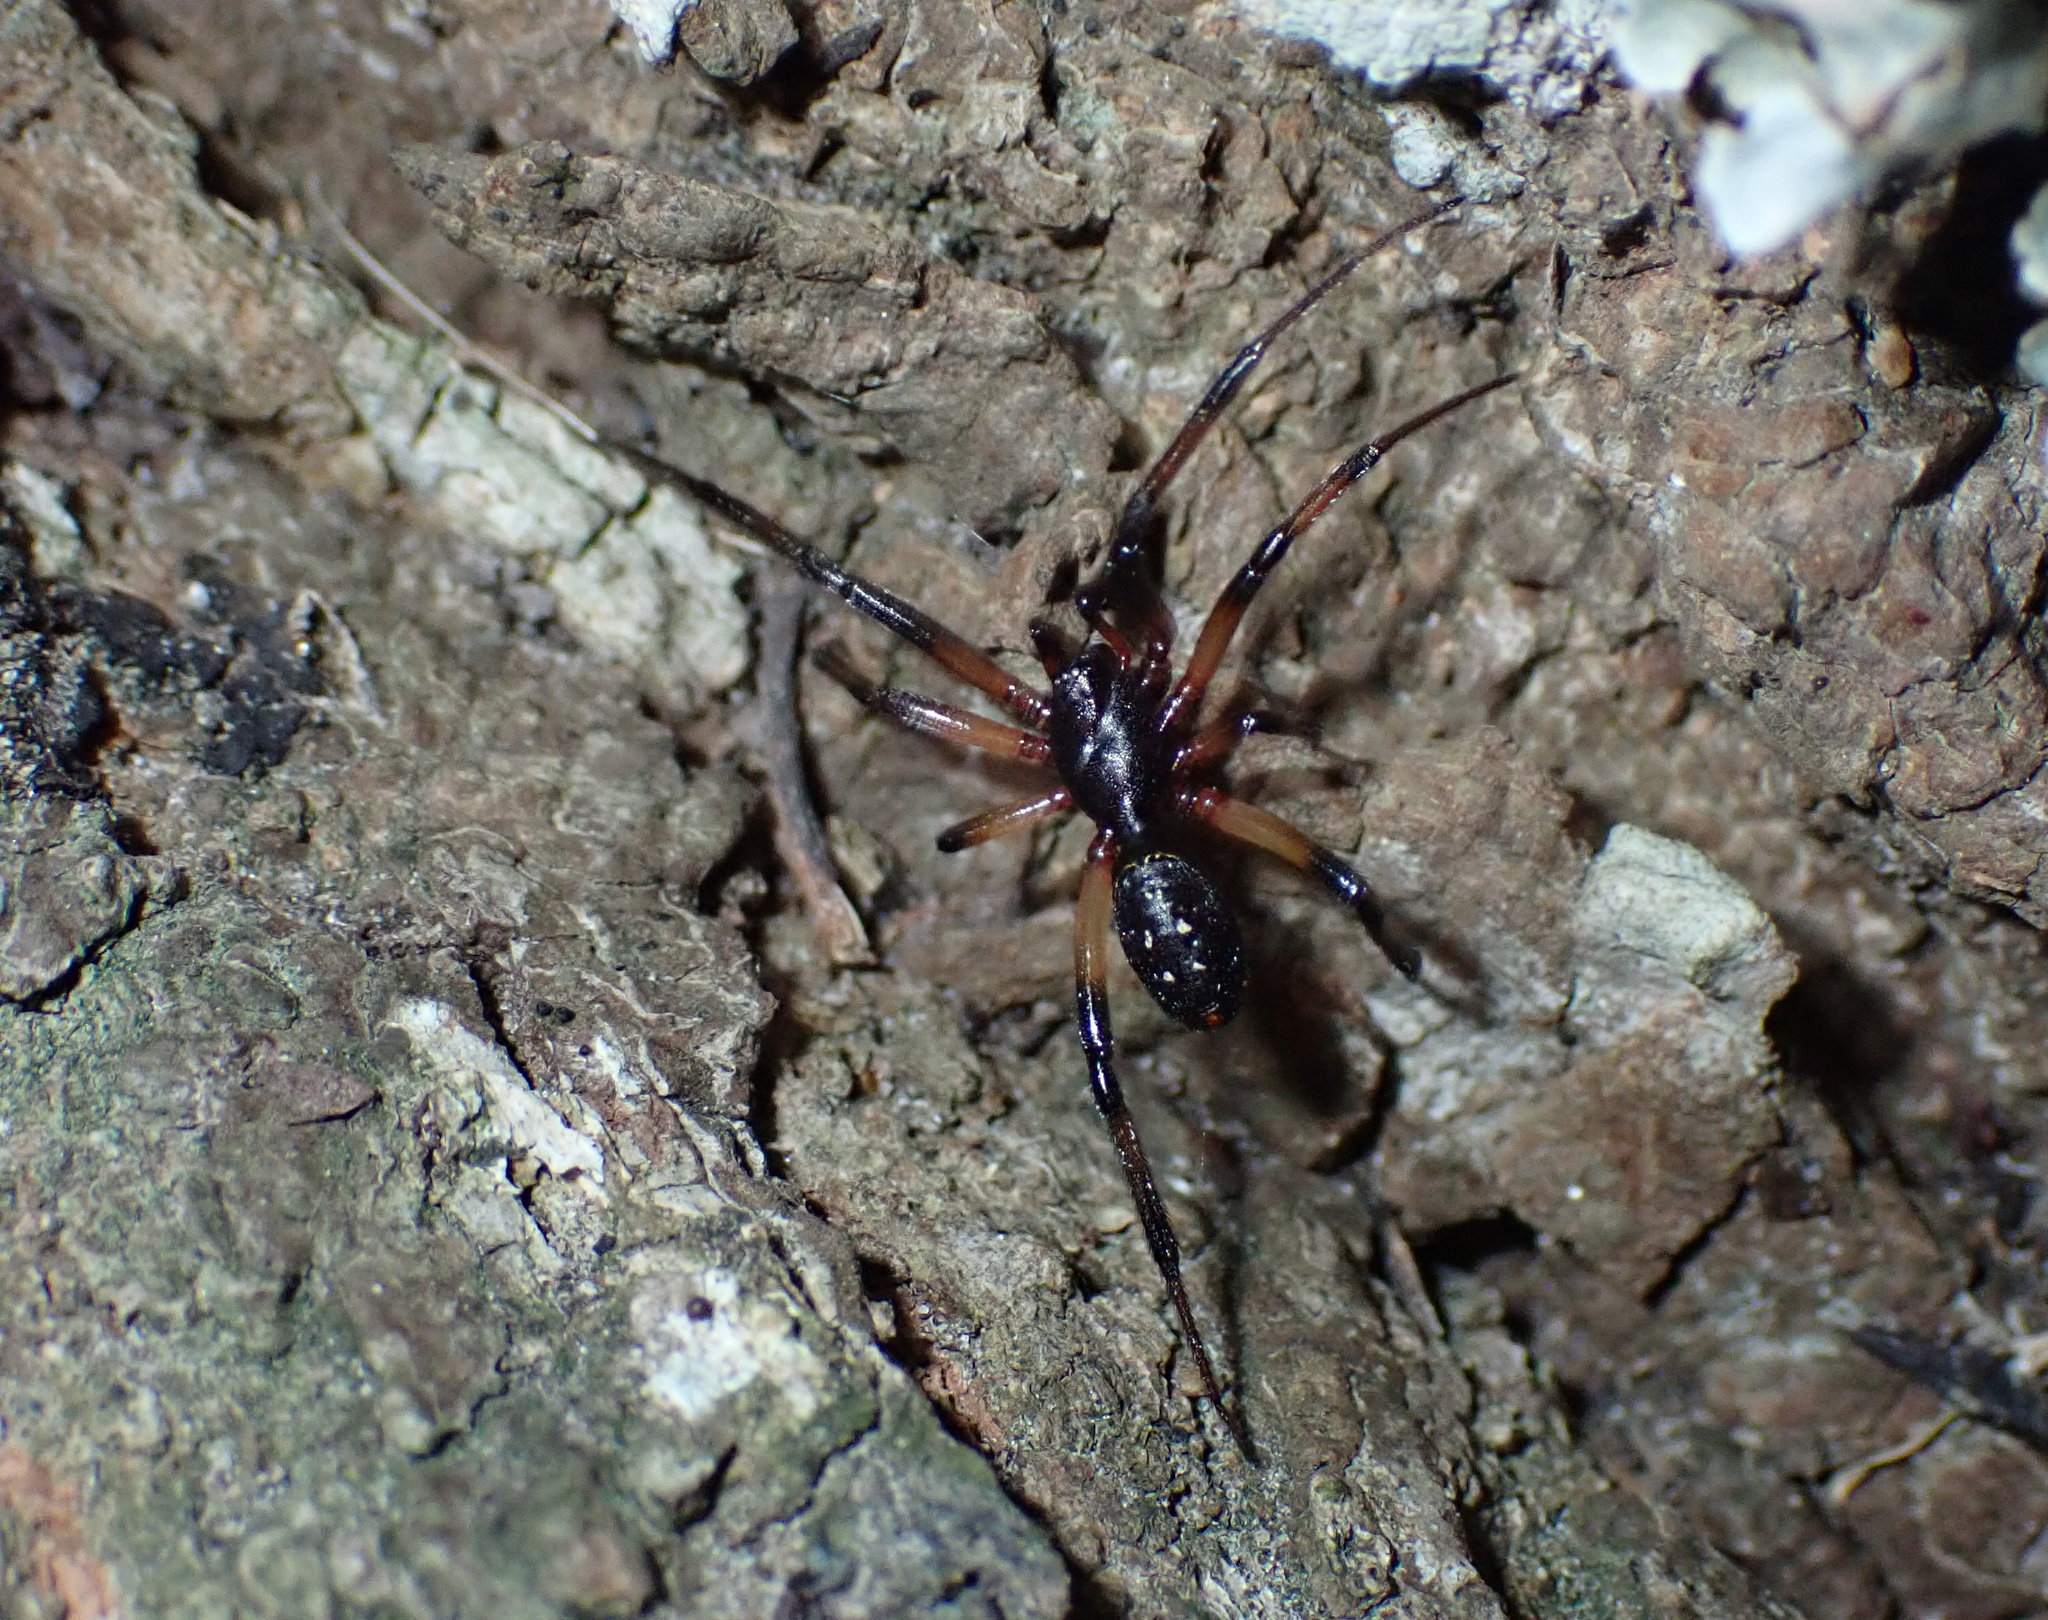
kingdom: Animalia
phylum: Arthropoda
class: Arachnida
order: Araneae
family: Theridiidae
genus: Steatoda
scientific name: Steatoda capensis
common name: Cobweb weaver
